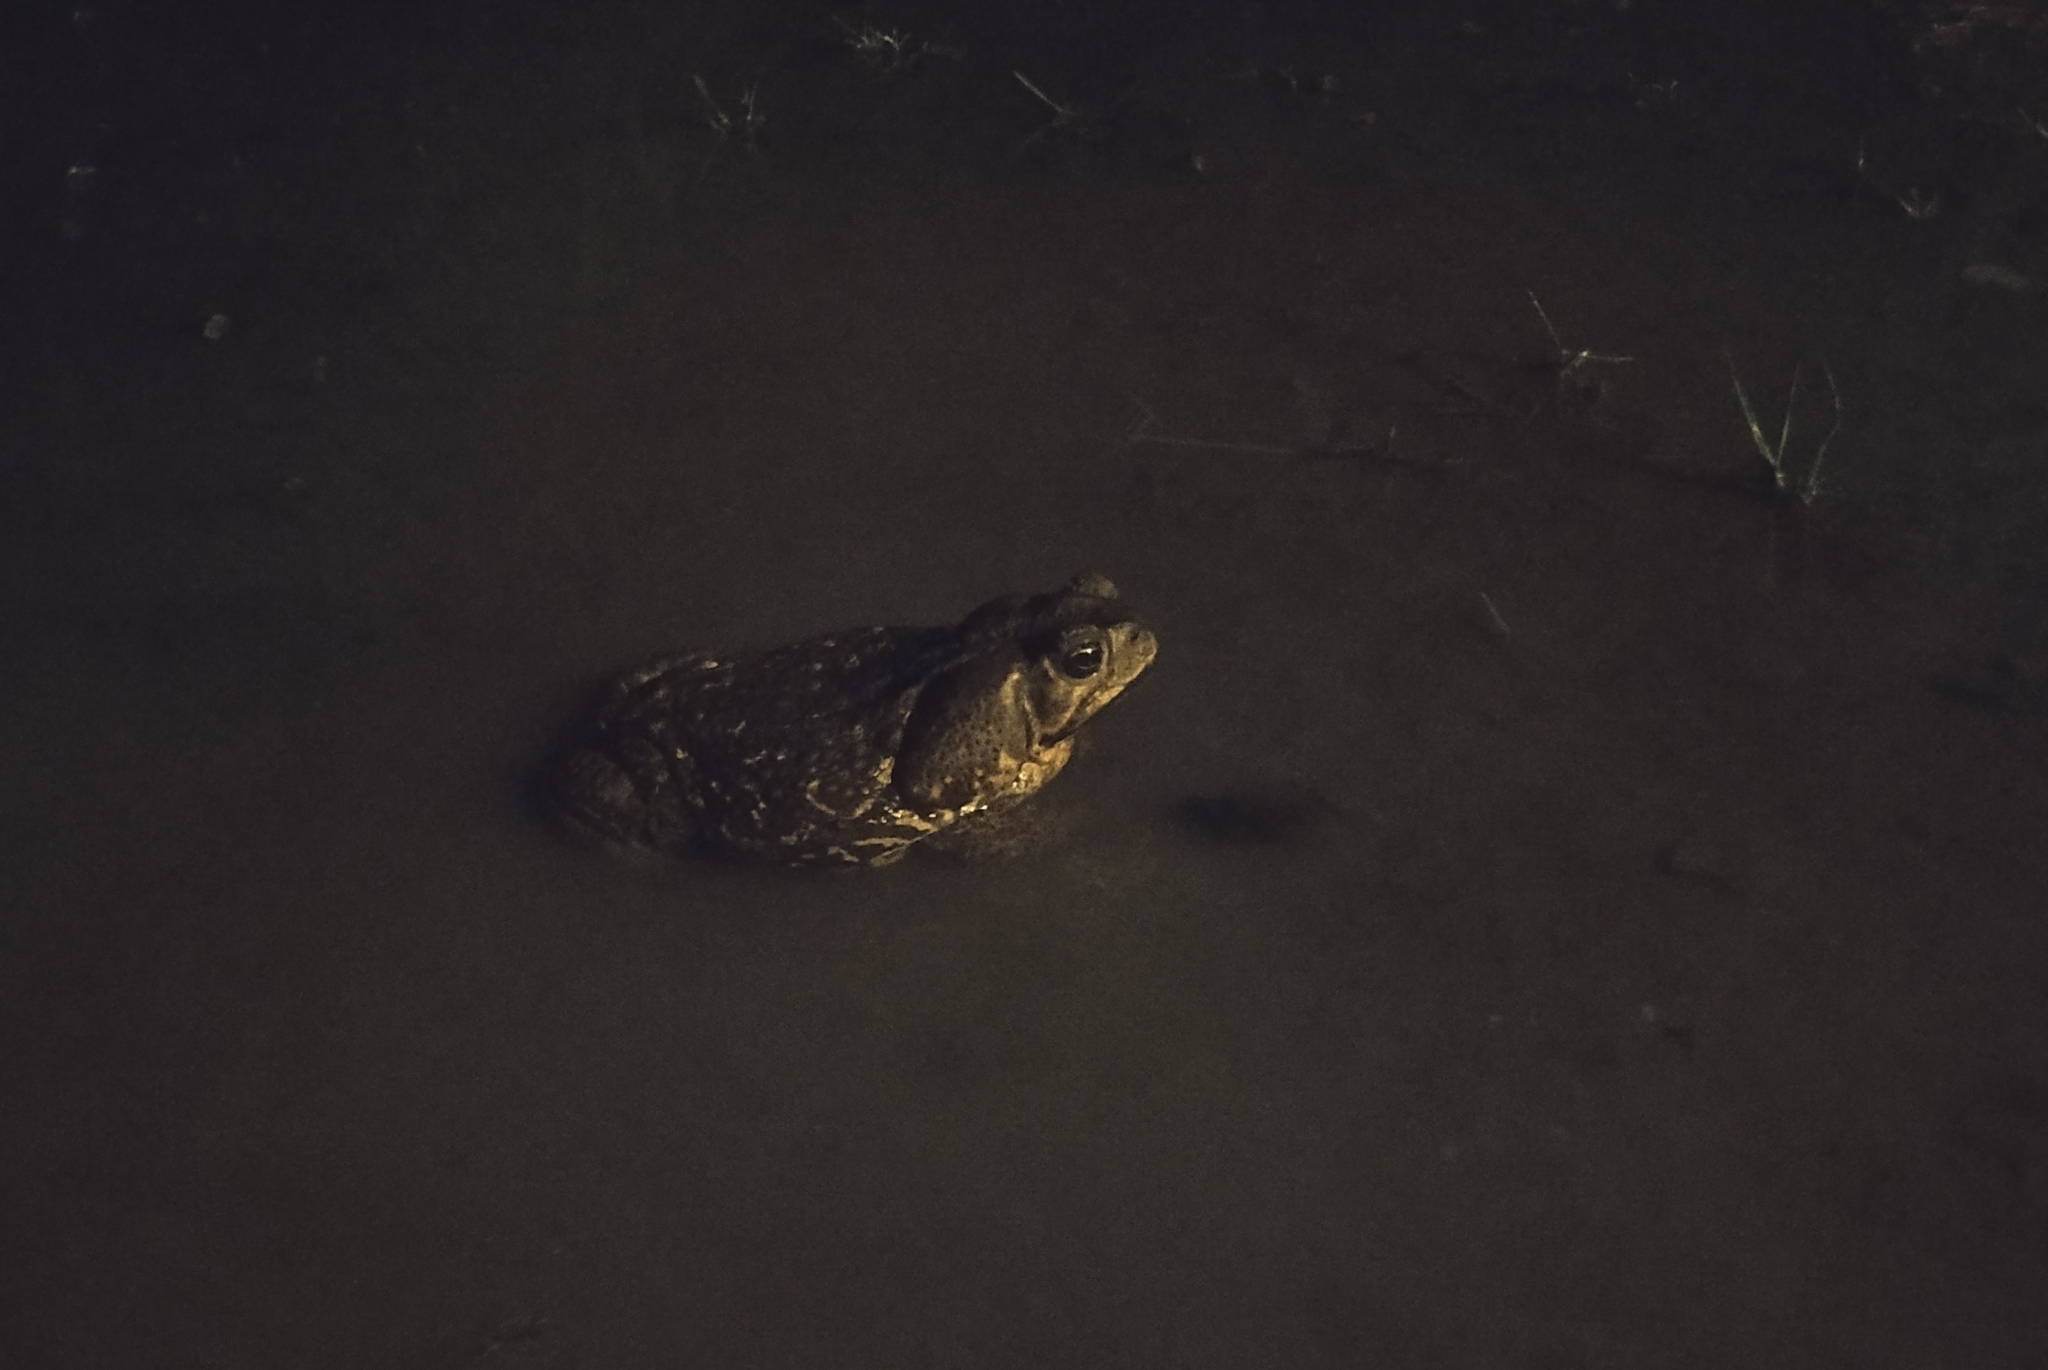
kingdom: Animalia
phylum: Chordata
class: Amphibia
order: Anura
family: Bufonidae
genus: Rhinella
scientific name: Rhinella horribilis
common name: Mesoamerican cane toad
